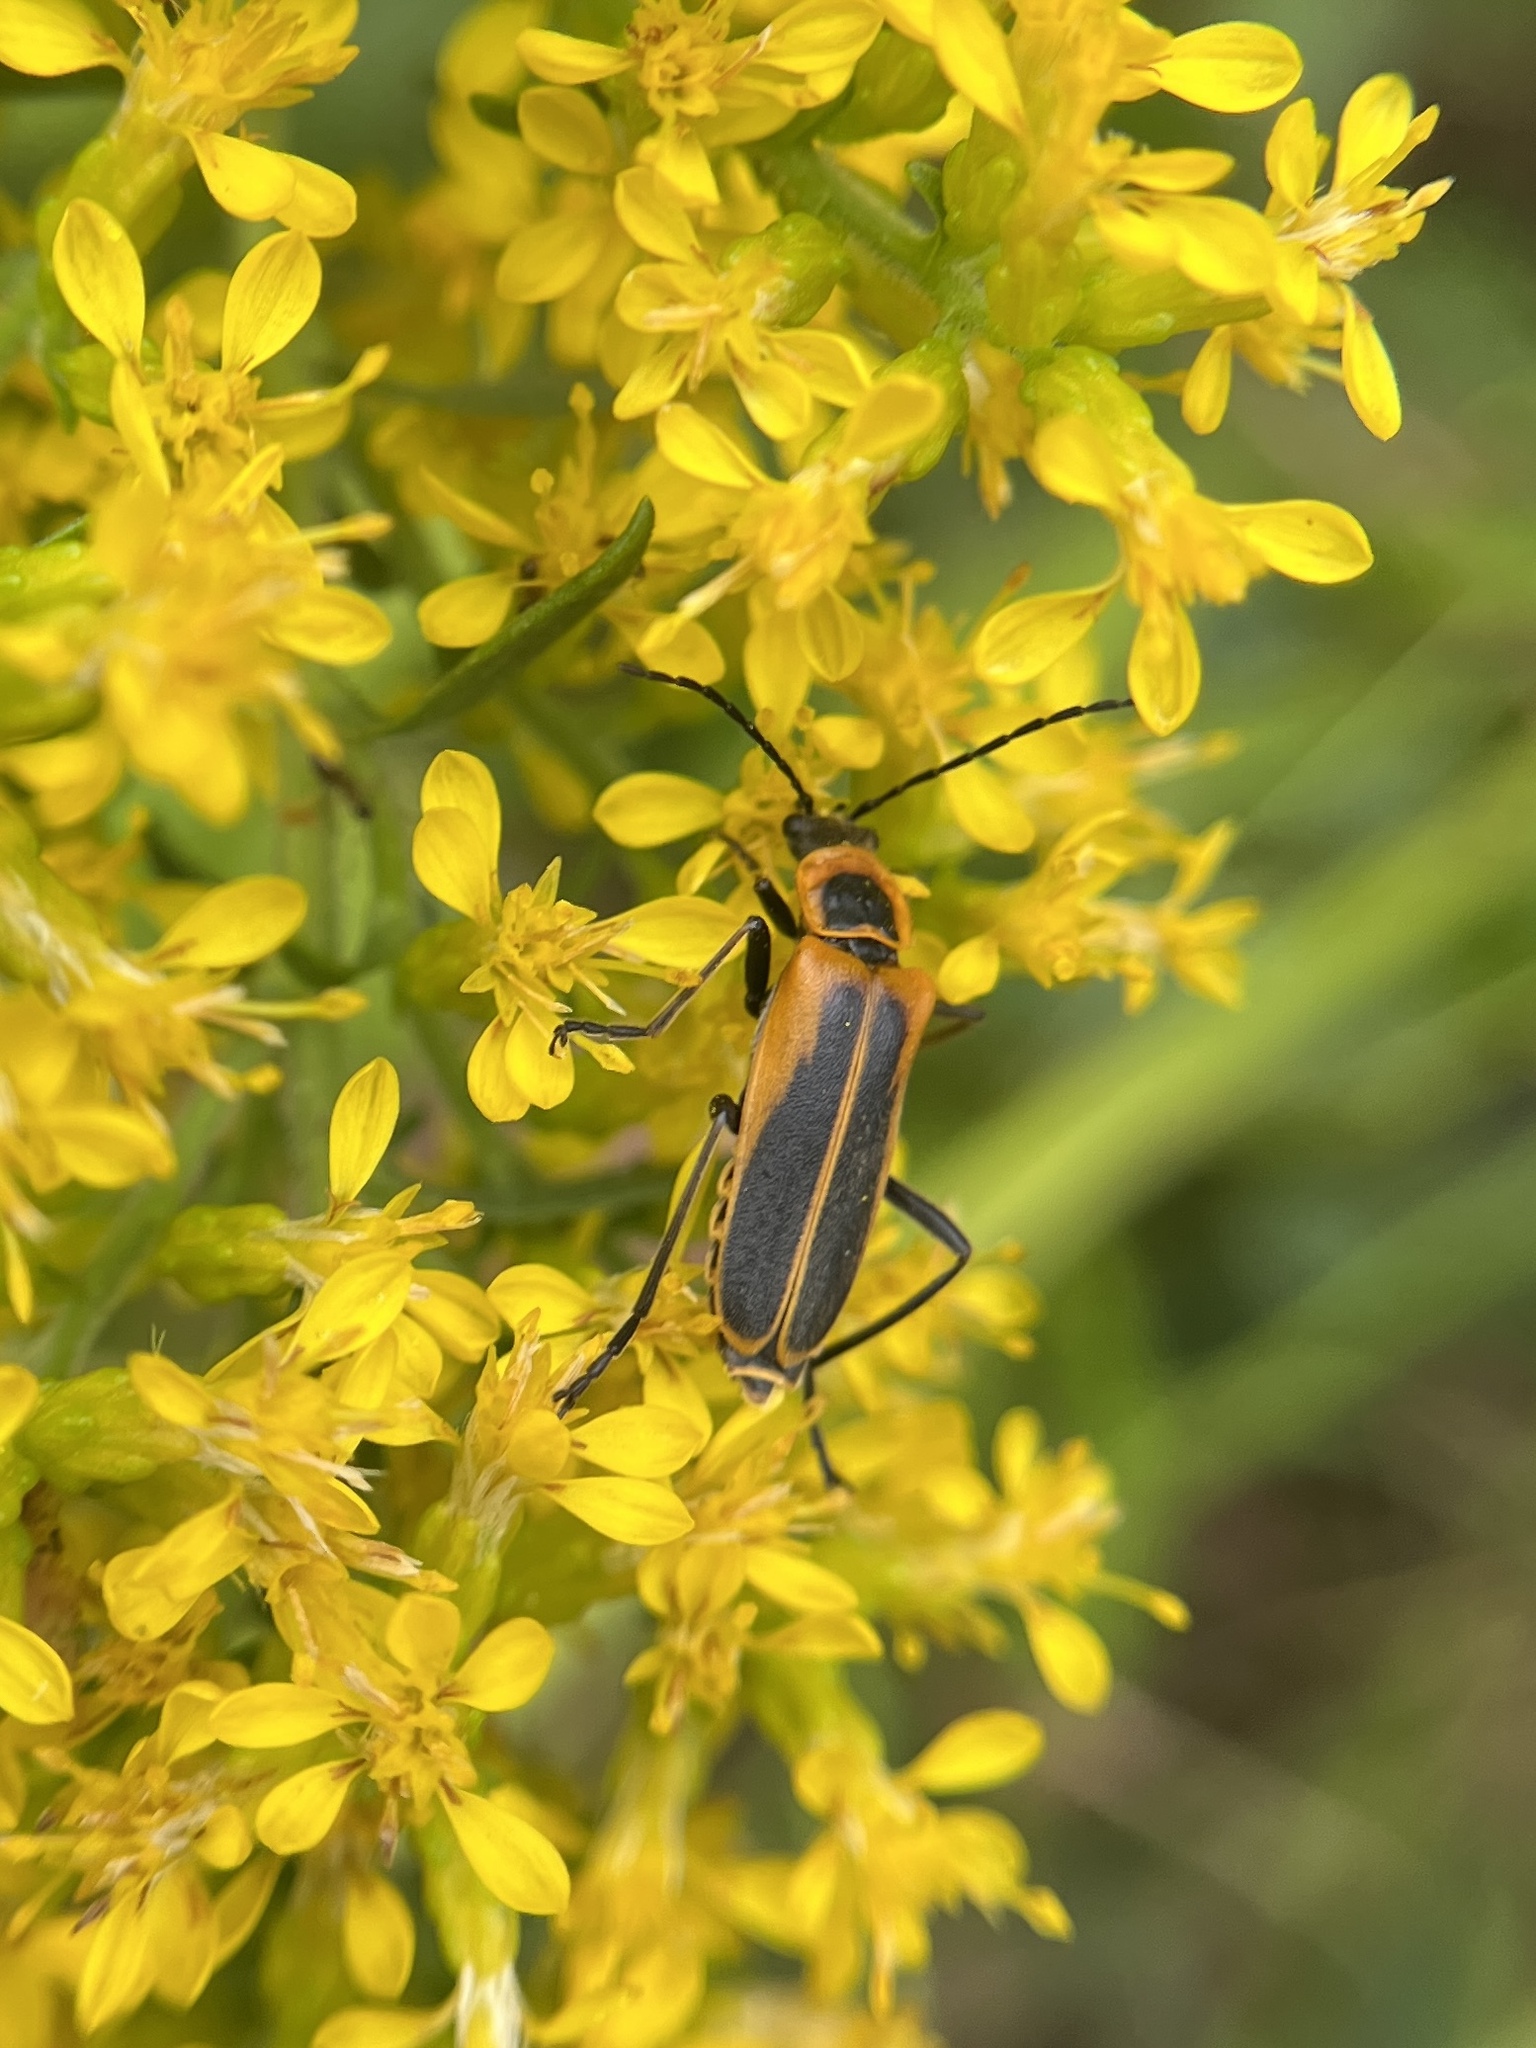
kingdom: Animalia
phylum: Arthropoda
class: Insecta
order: Coleoptera
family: Cantharidae
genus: Chauliognathus
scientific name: Chauliognathus pensylvanicus
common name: Goldenrod soldier beetle
